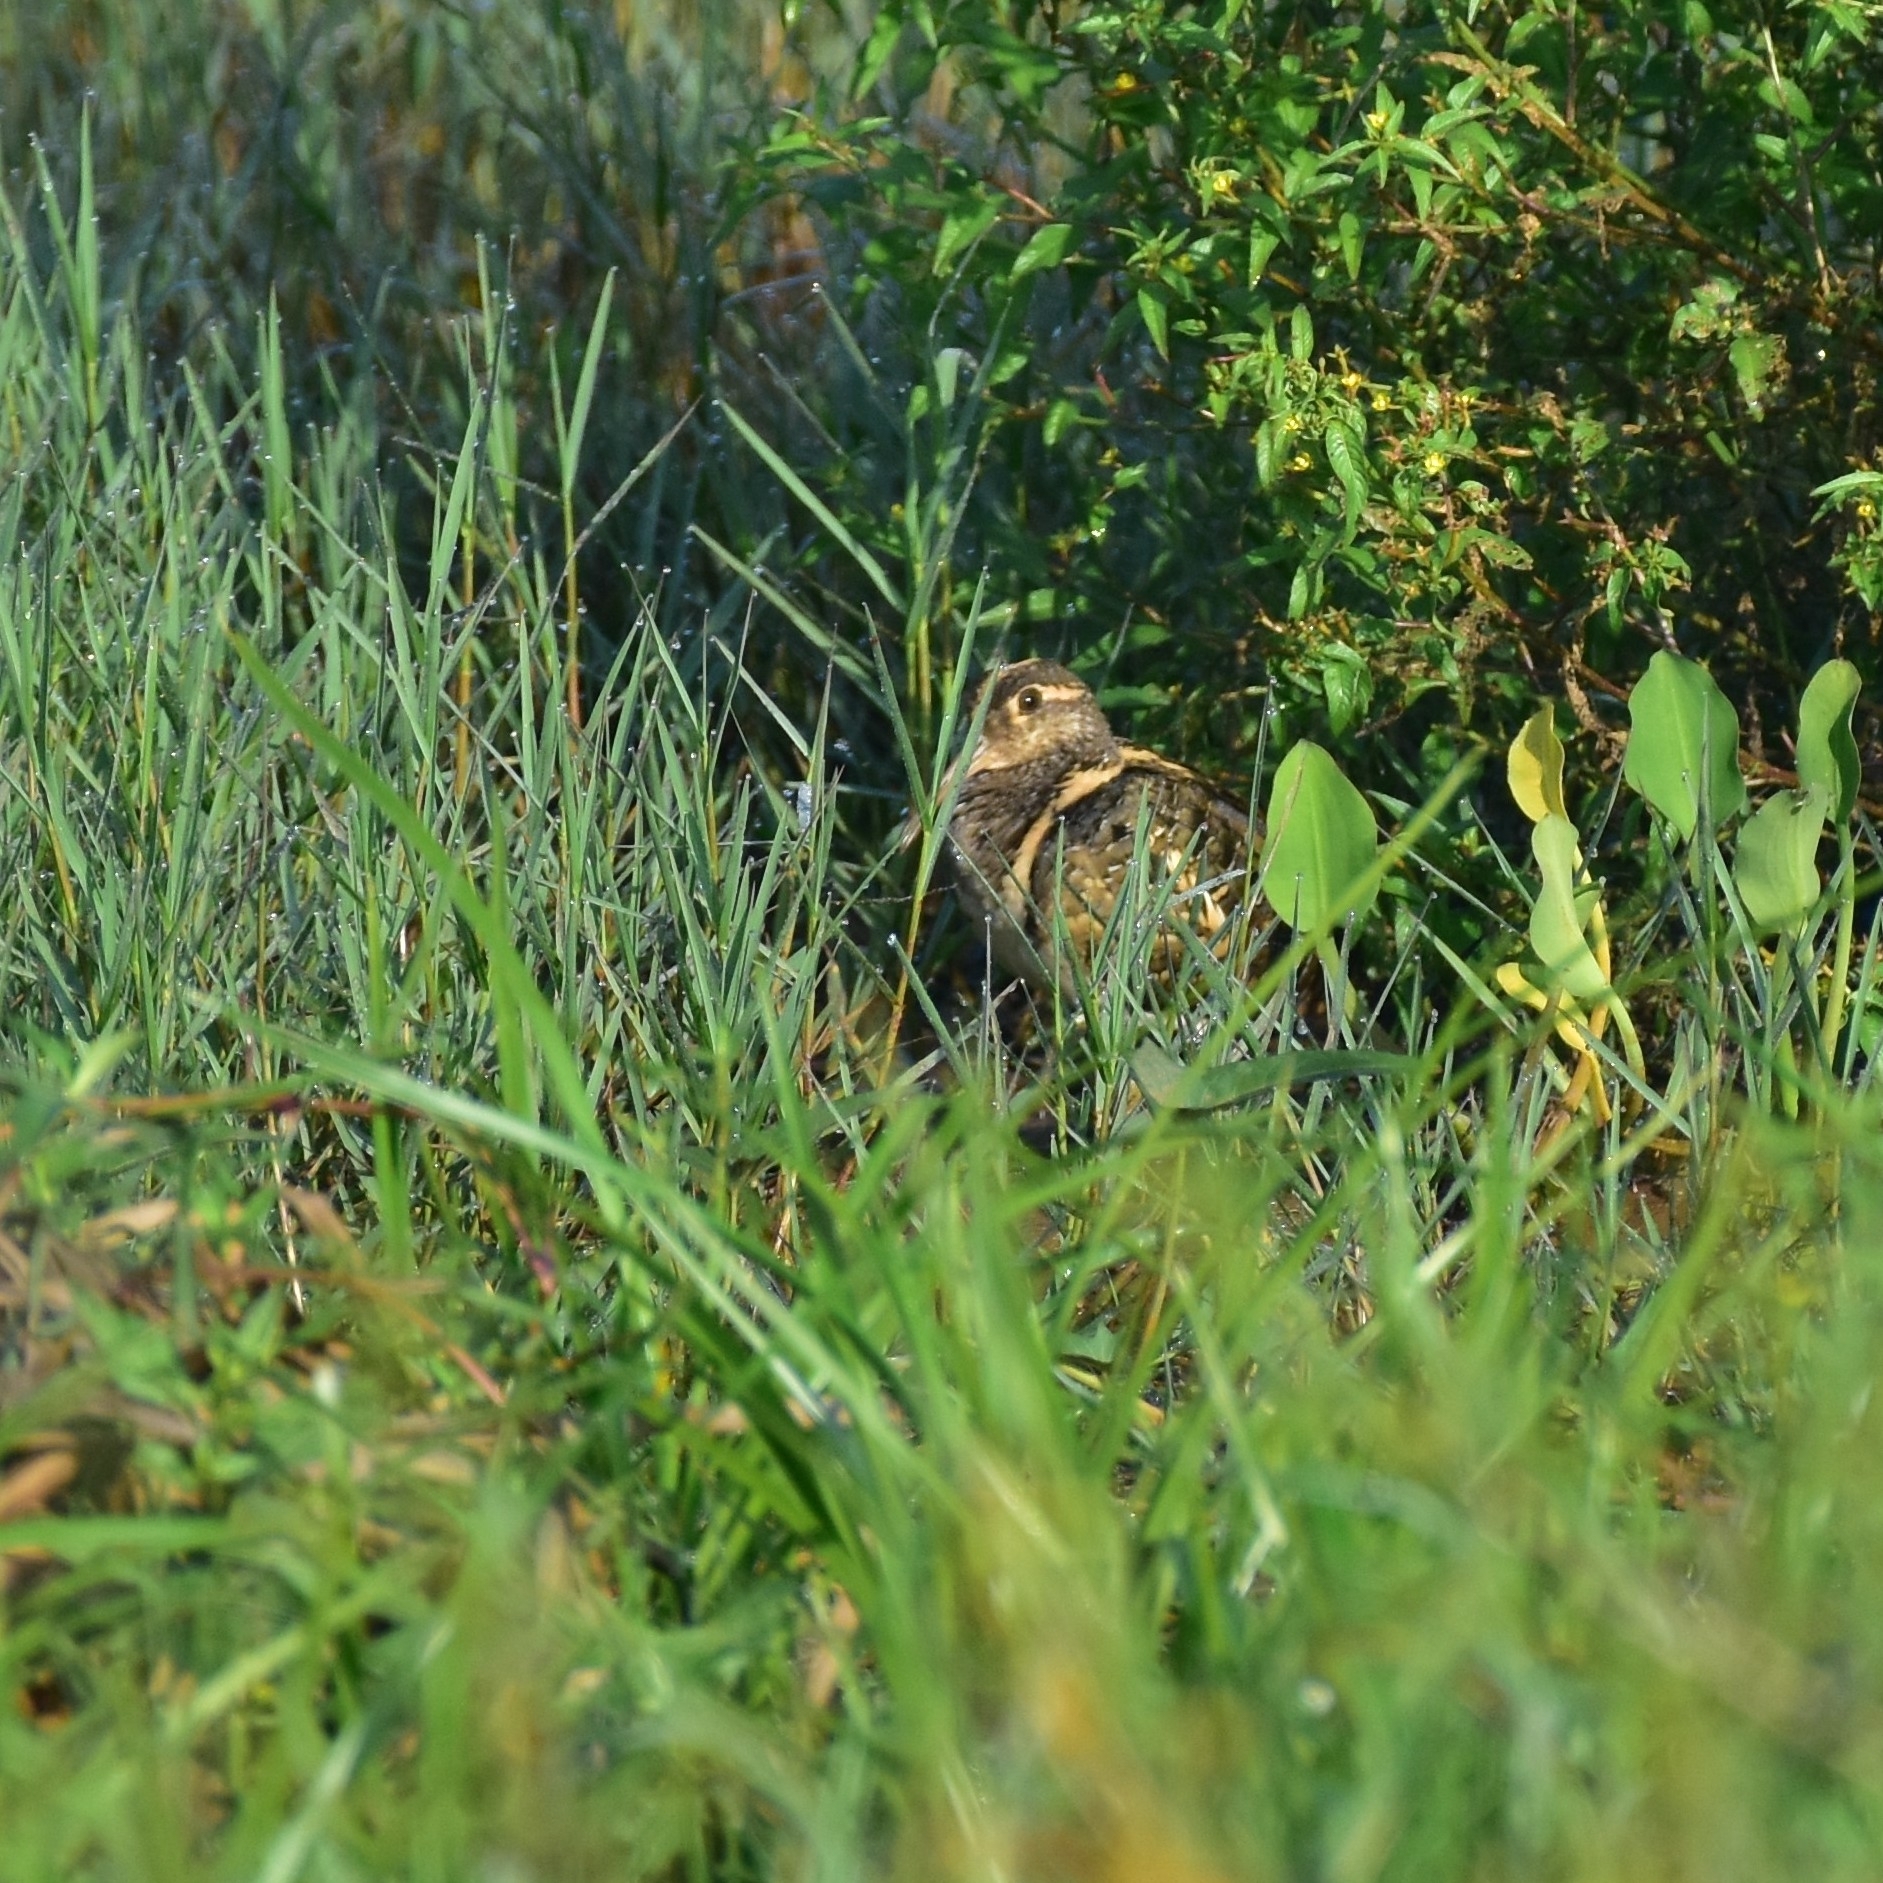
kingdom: Animalia
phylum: Chordata
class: Aves
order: Charadriiformes
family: Rostratulidae
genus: Rostratula
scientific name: Rostratula benghalensis
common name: Greater painted-snipe
